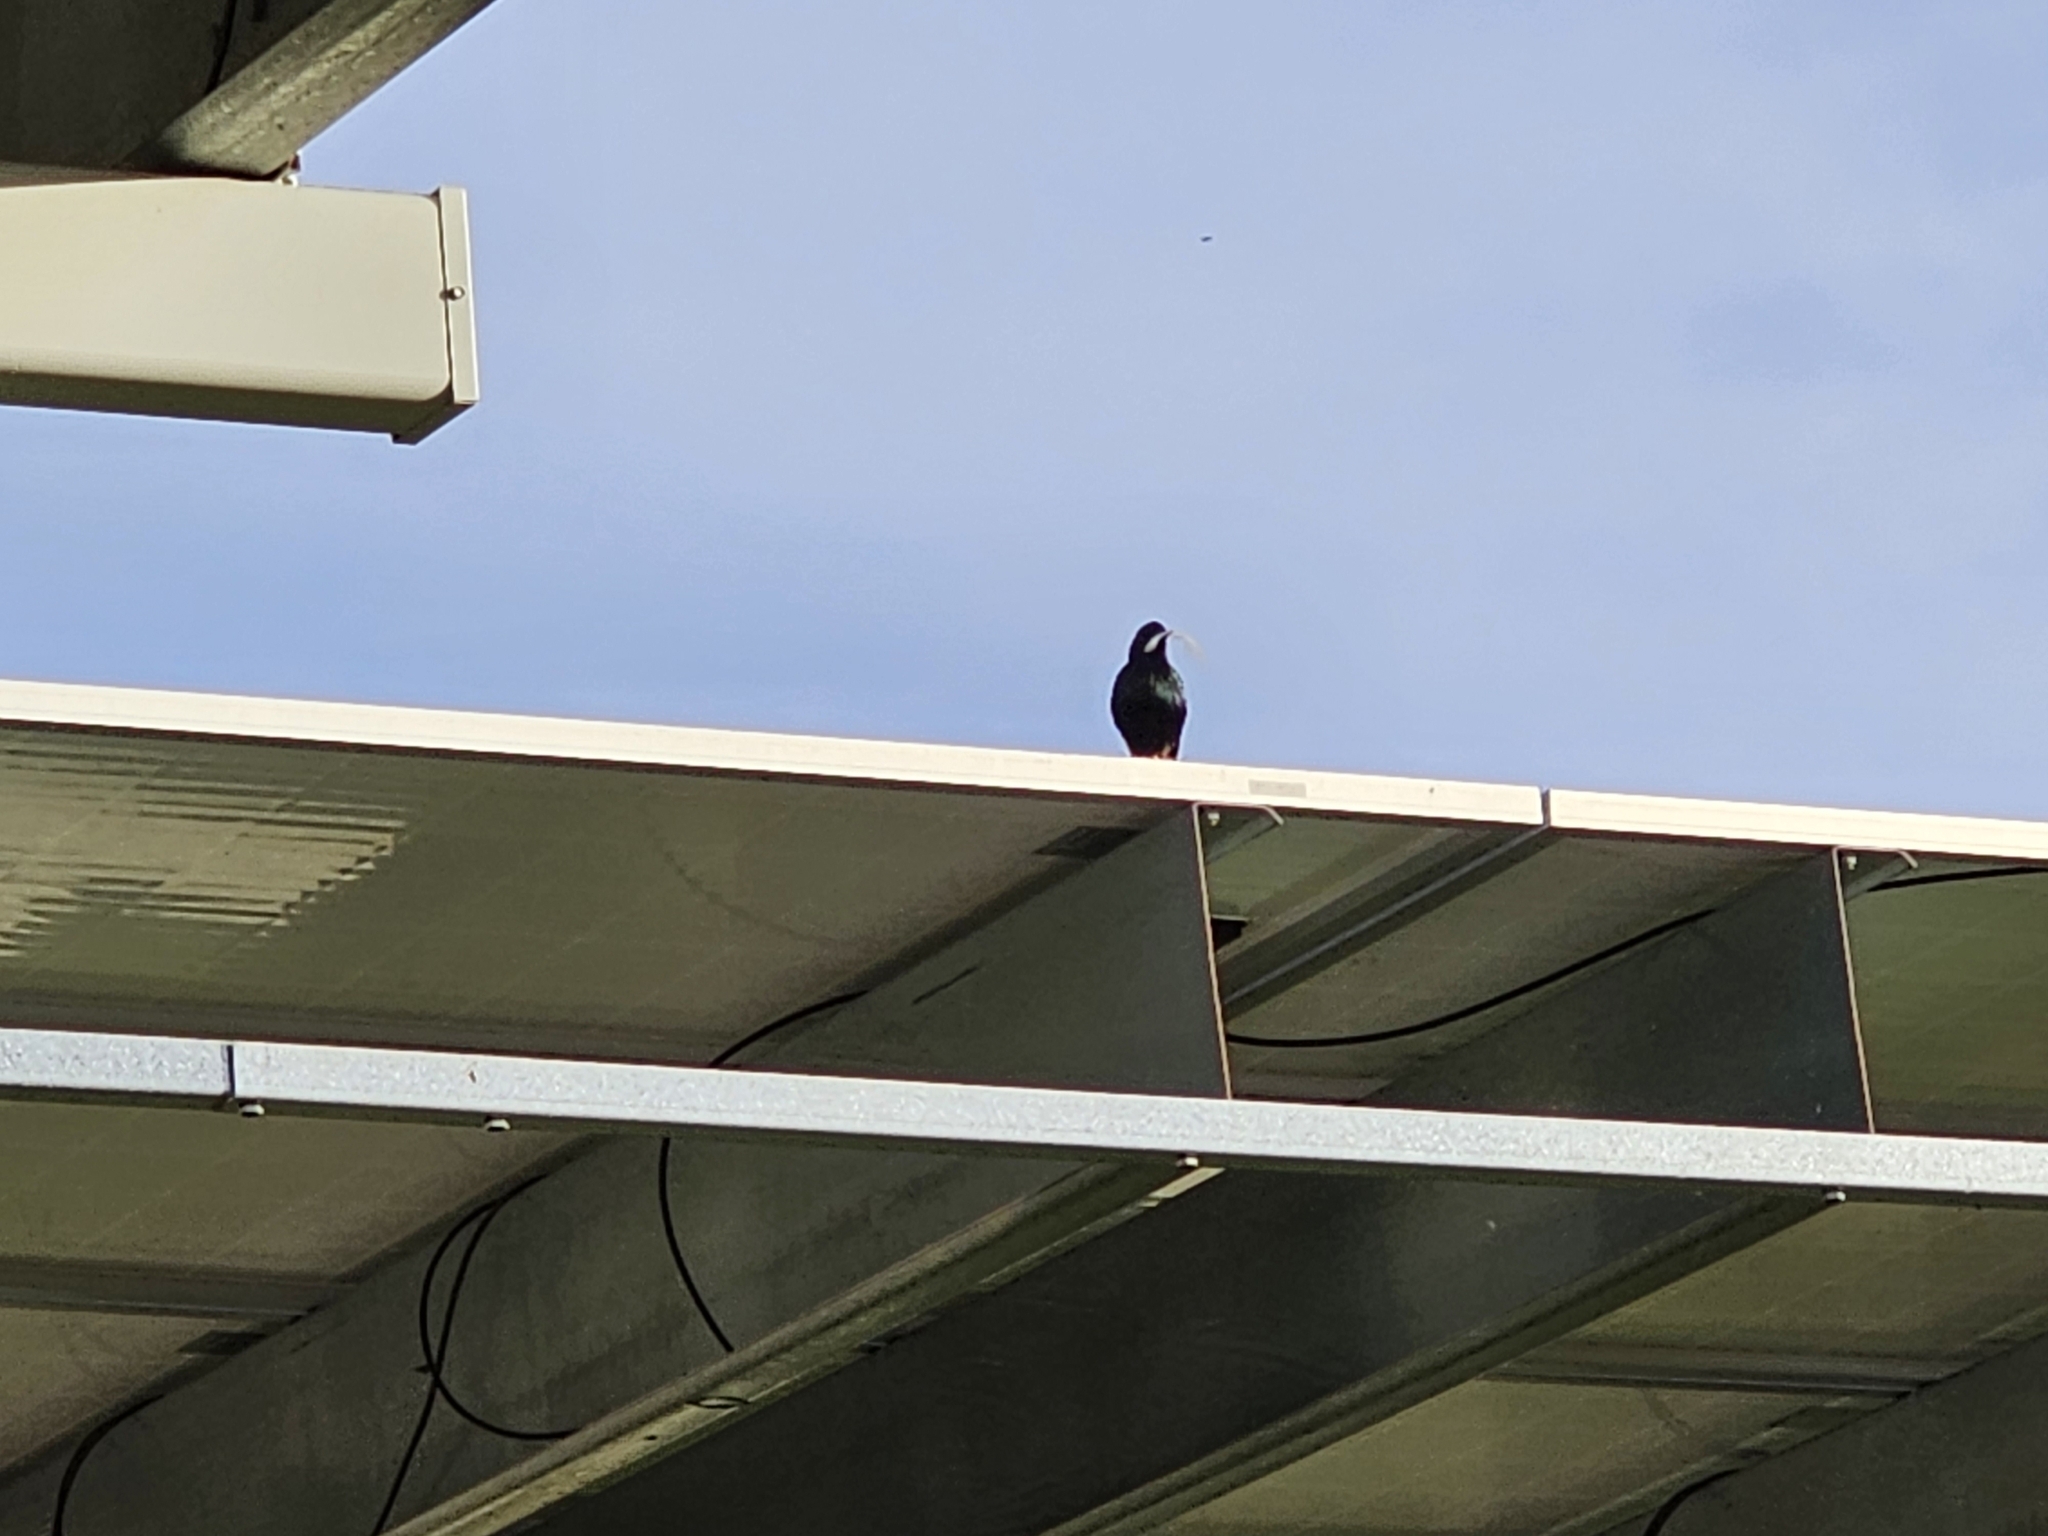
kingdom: Animalia
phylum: Chordata
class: Aves
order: Passeriformes
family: Sturnidae
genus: Sturnus
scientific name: Sturnus vulgaris
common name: Common starling
